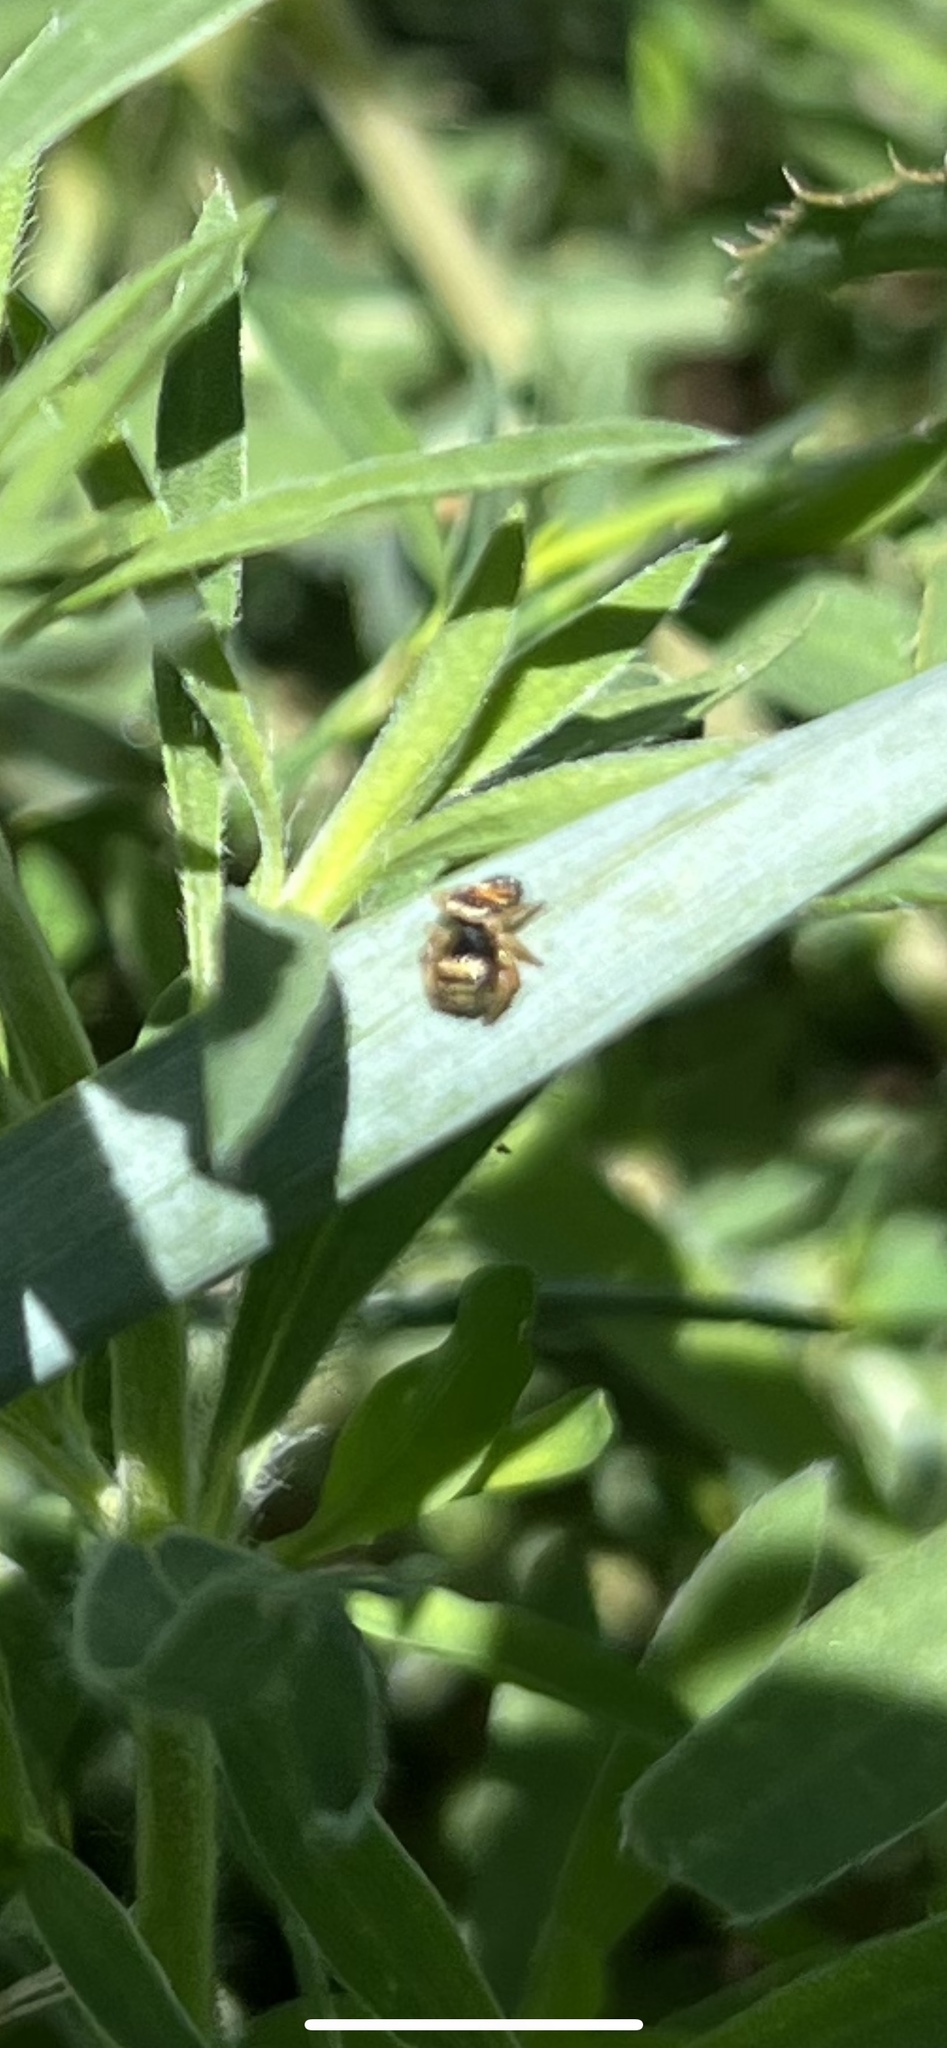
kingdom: Animalia
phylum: Arthropoda
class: Arachnida
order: Araneae
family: Salticidae
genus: Phidippus
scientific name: Phidippus apacheanus
